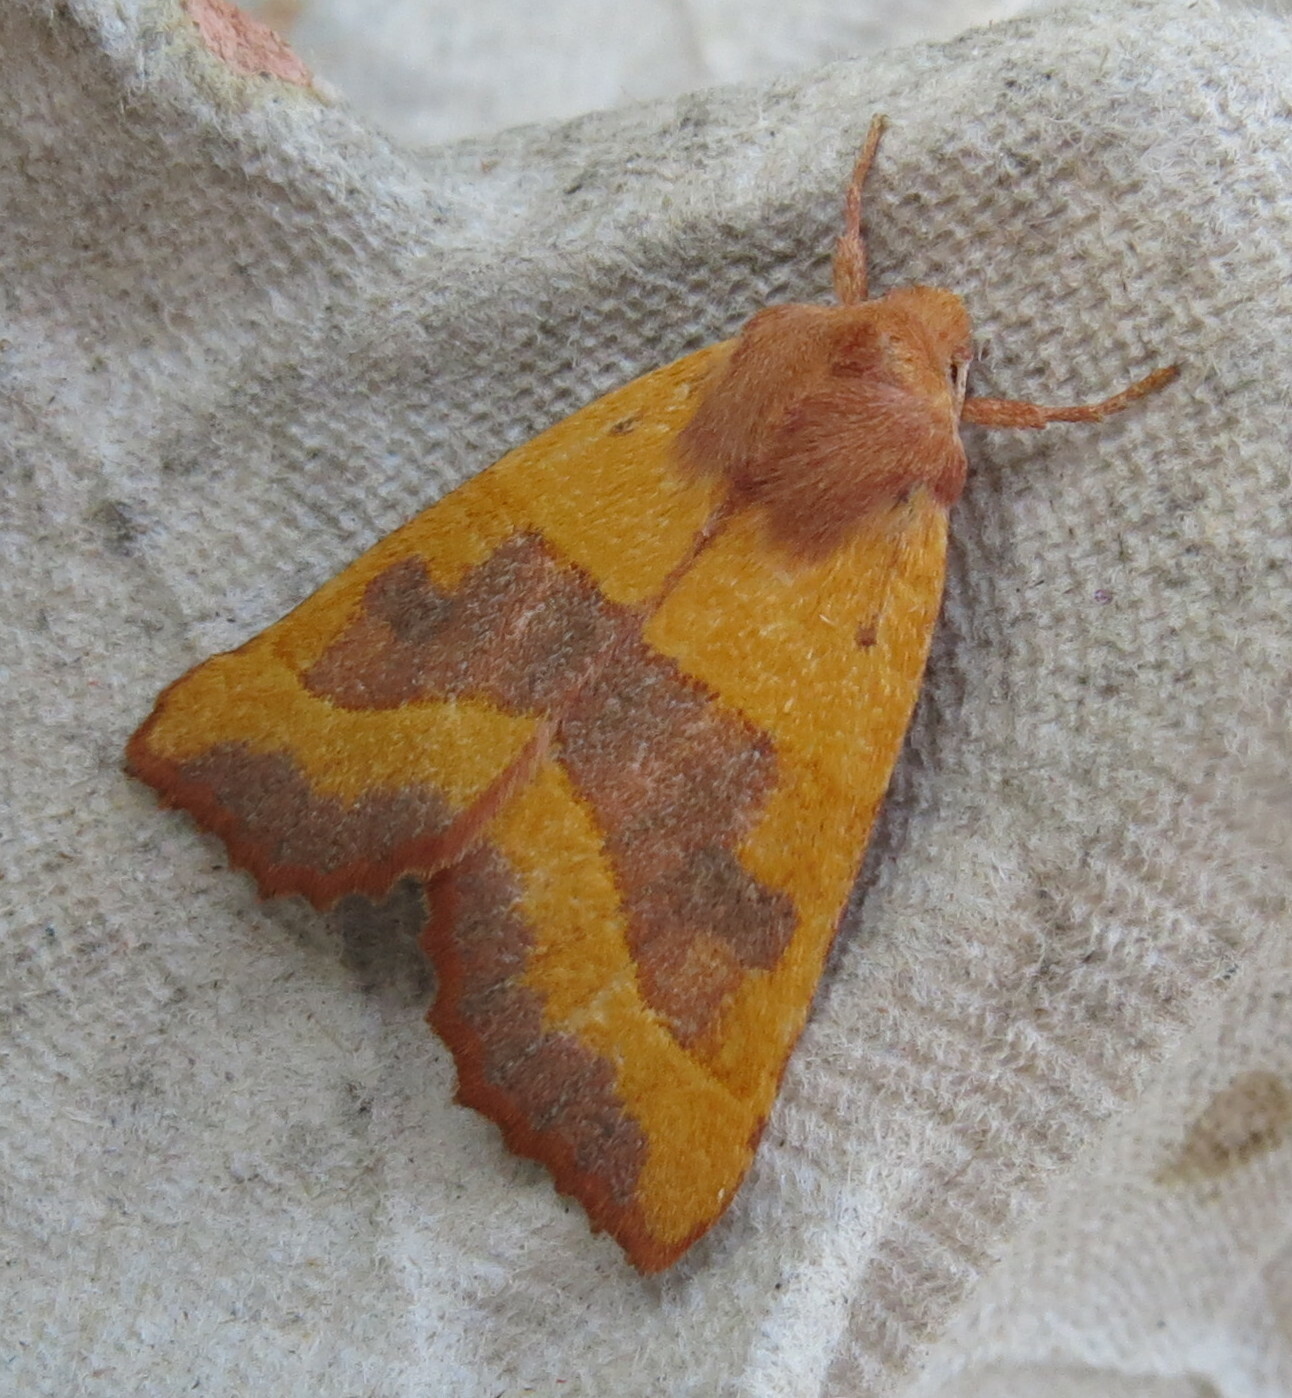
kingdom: Animalia
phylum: Arthropoda
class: Insecta
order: Lepidoptera
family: Noctuidae
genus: Atethmia
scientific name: Atethmia centrago
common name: Centre-barred sallow
